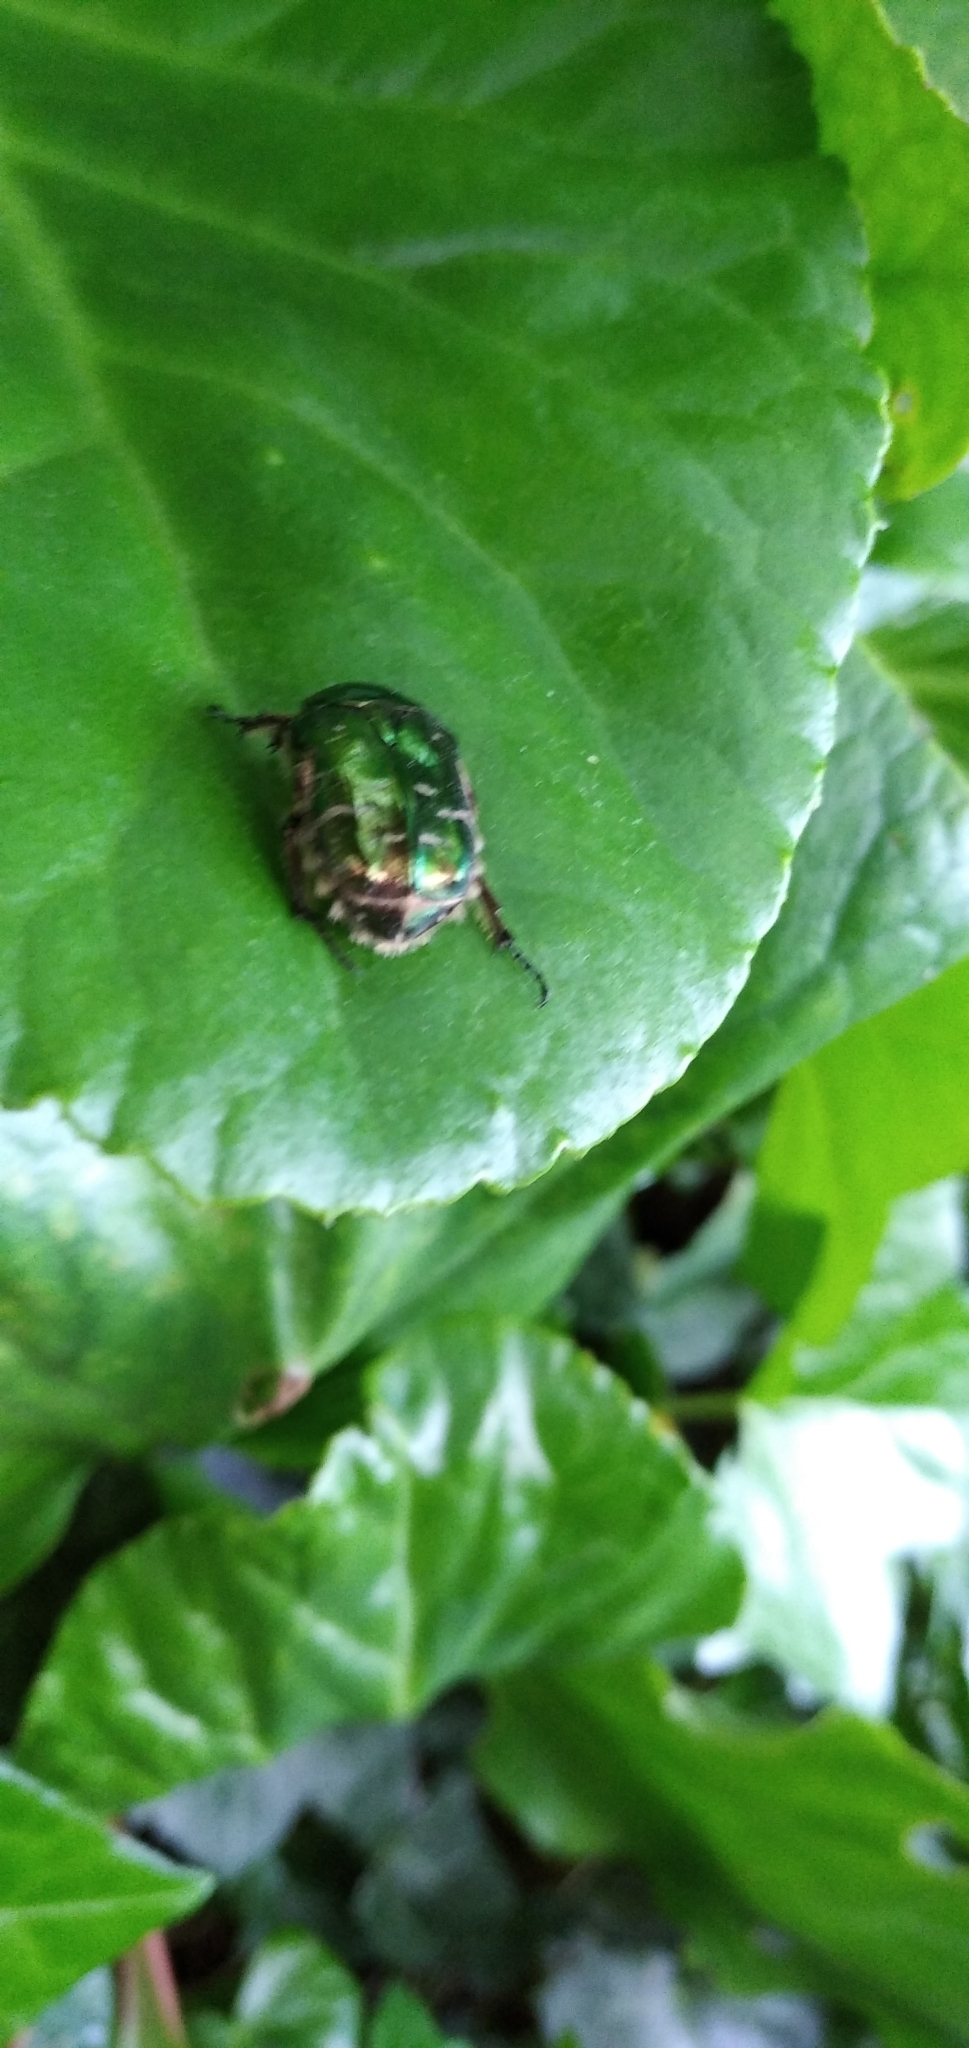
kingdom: Animalia
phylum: Arthropoda
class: Insecta
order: Coleoptera
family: Scarabaeidae
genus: Cetonia
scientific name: Cetonia aurata
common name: Rose chafer
